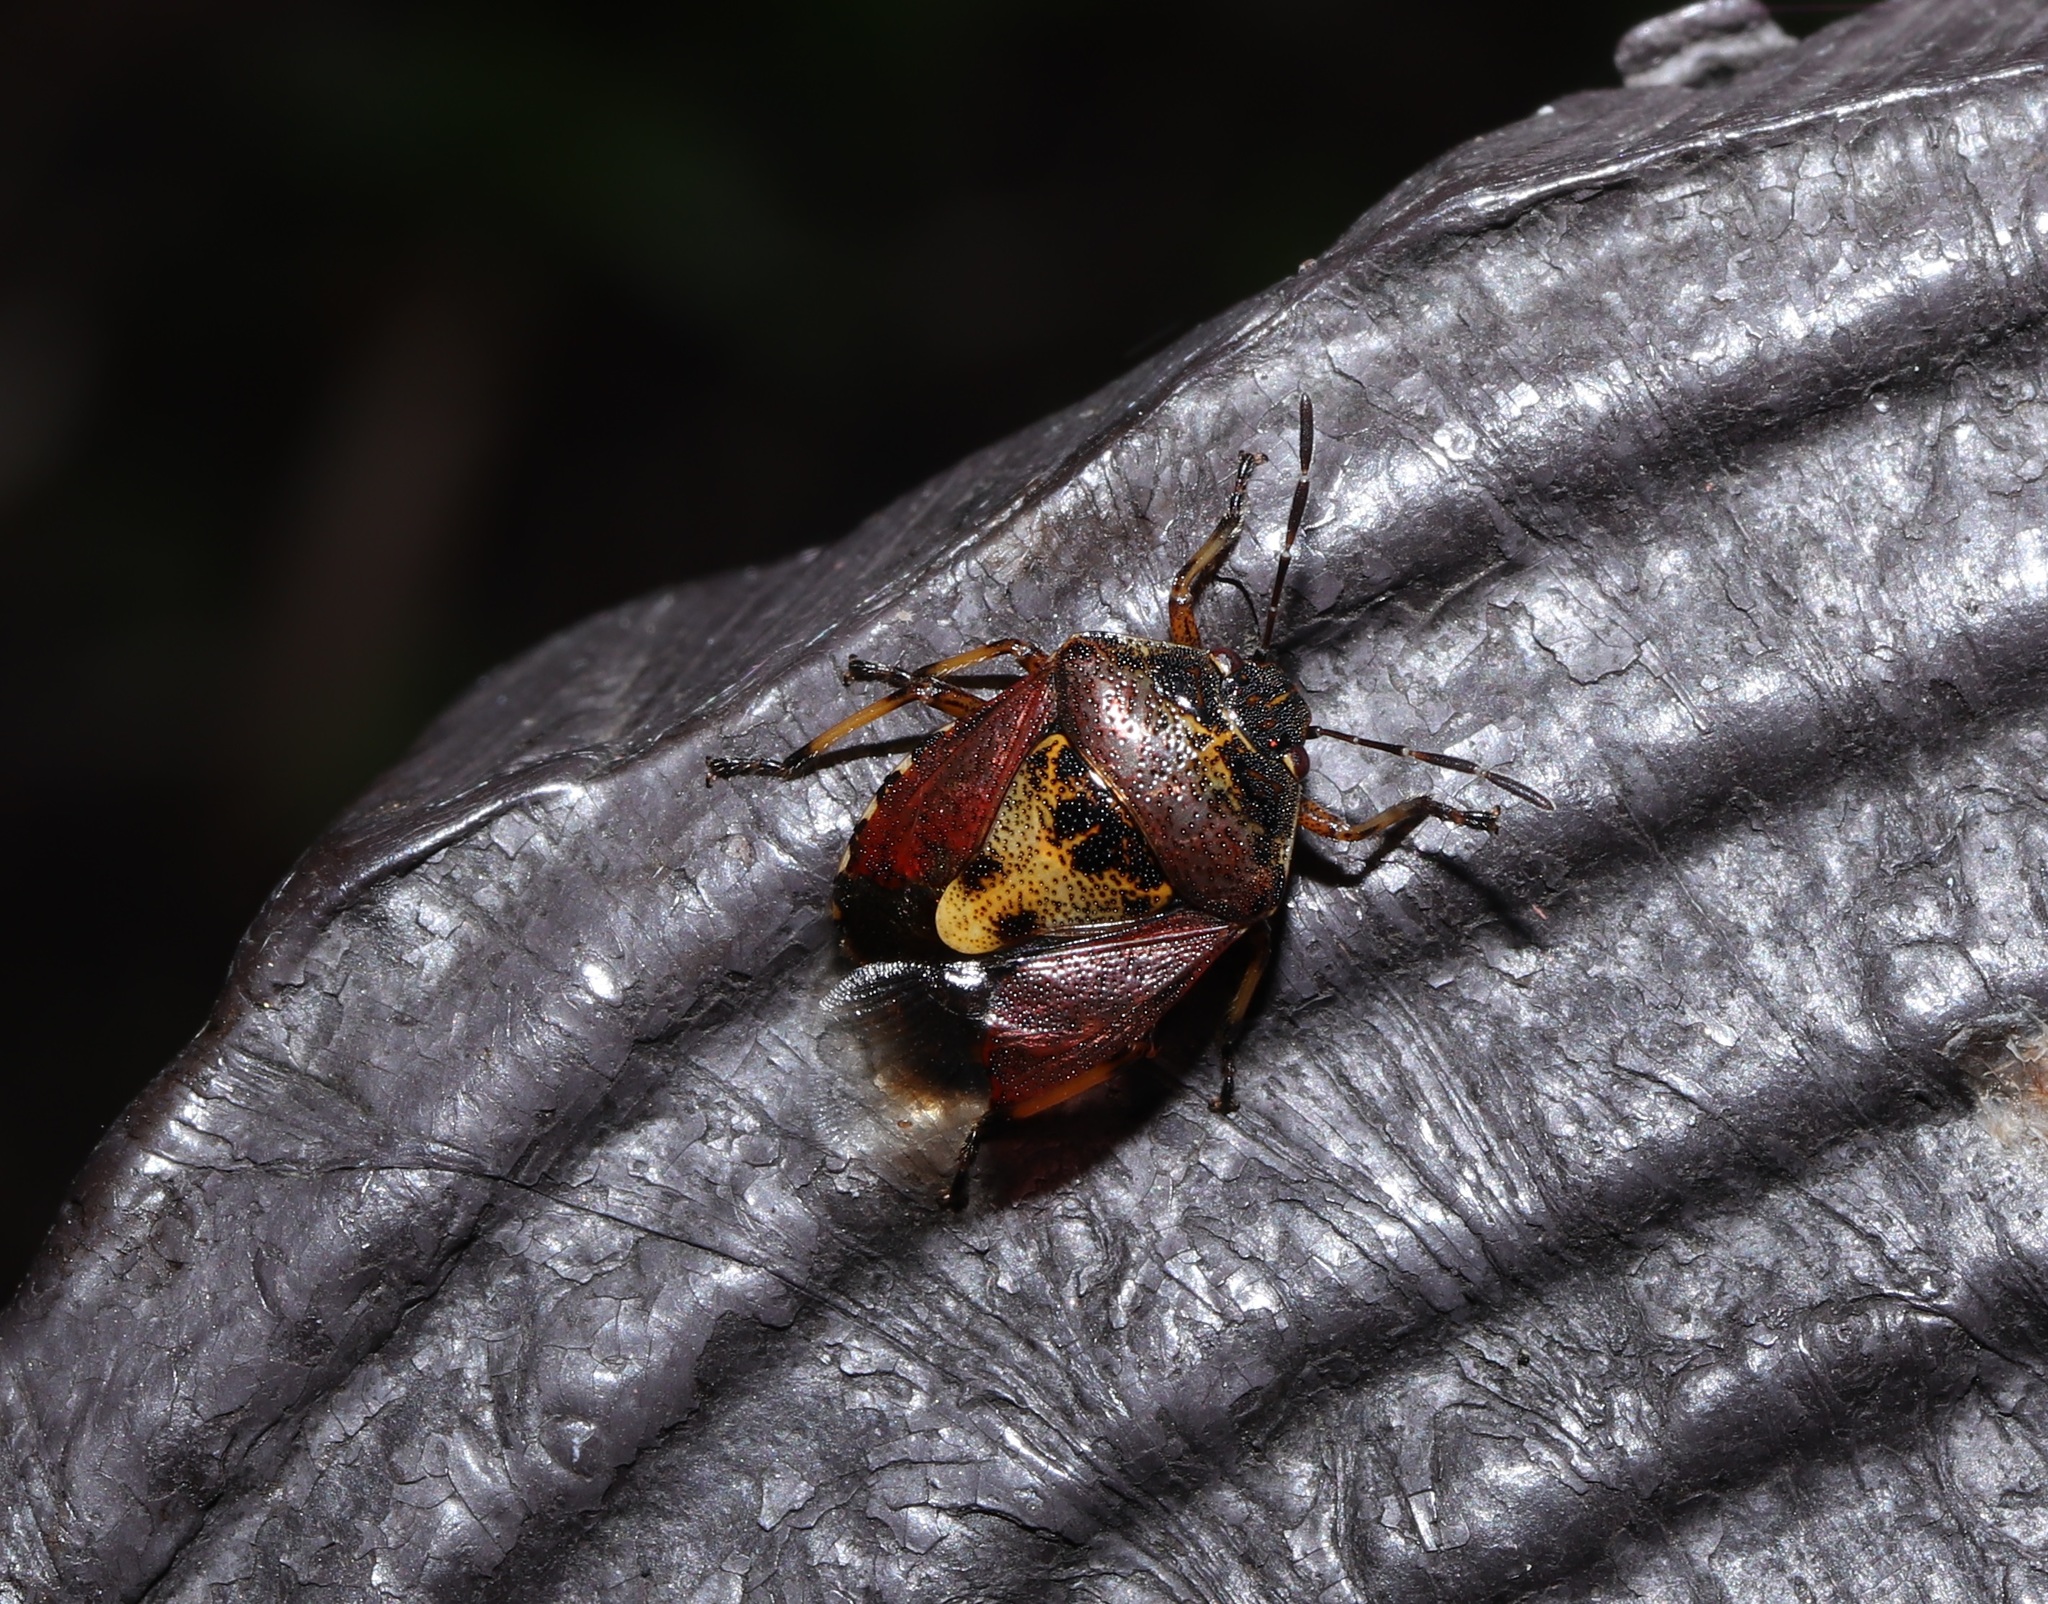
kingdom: Animalia
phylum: Arthropoda
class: Insecta
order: Hemiptera
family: Pentatomidae
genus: Menida
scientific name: Menida musiva
